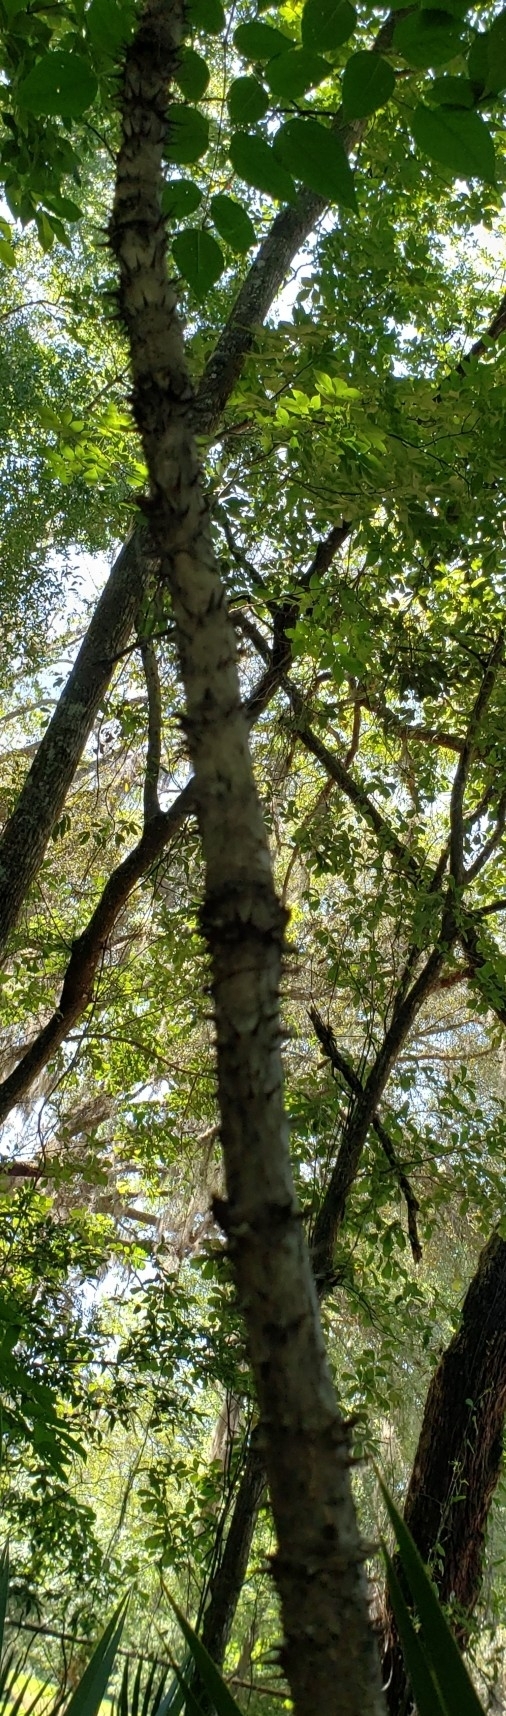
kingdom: Plantae
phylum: Tracheophyta
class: Magnoliopsida
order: Apiales
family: Araliaceae
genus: Aralia
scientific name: Aralia spinosa
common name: Hercules'-club
